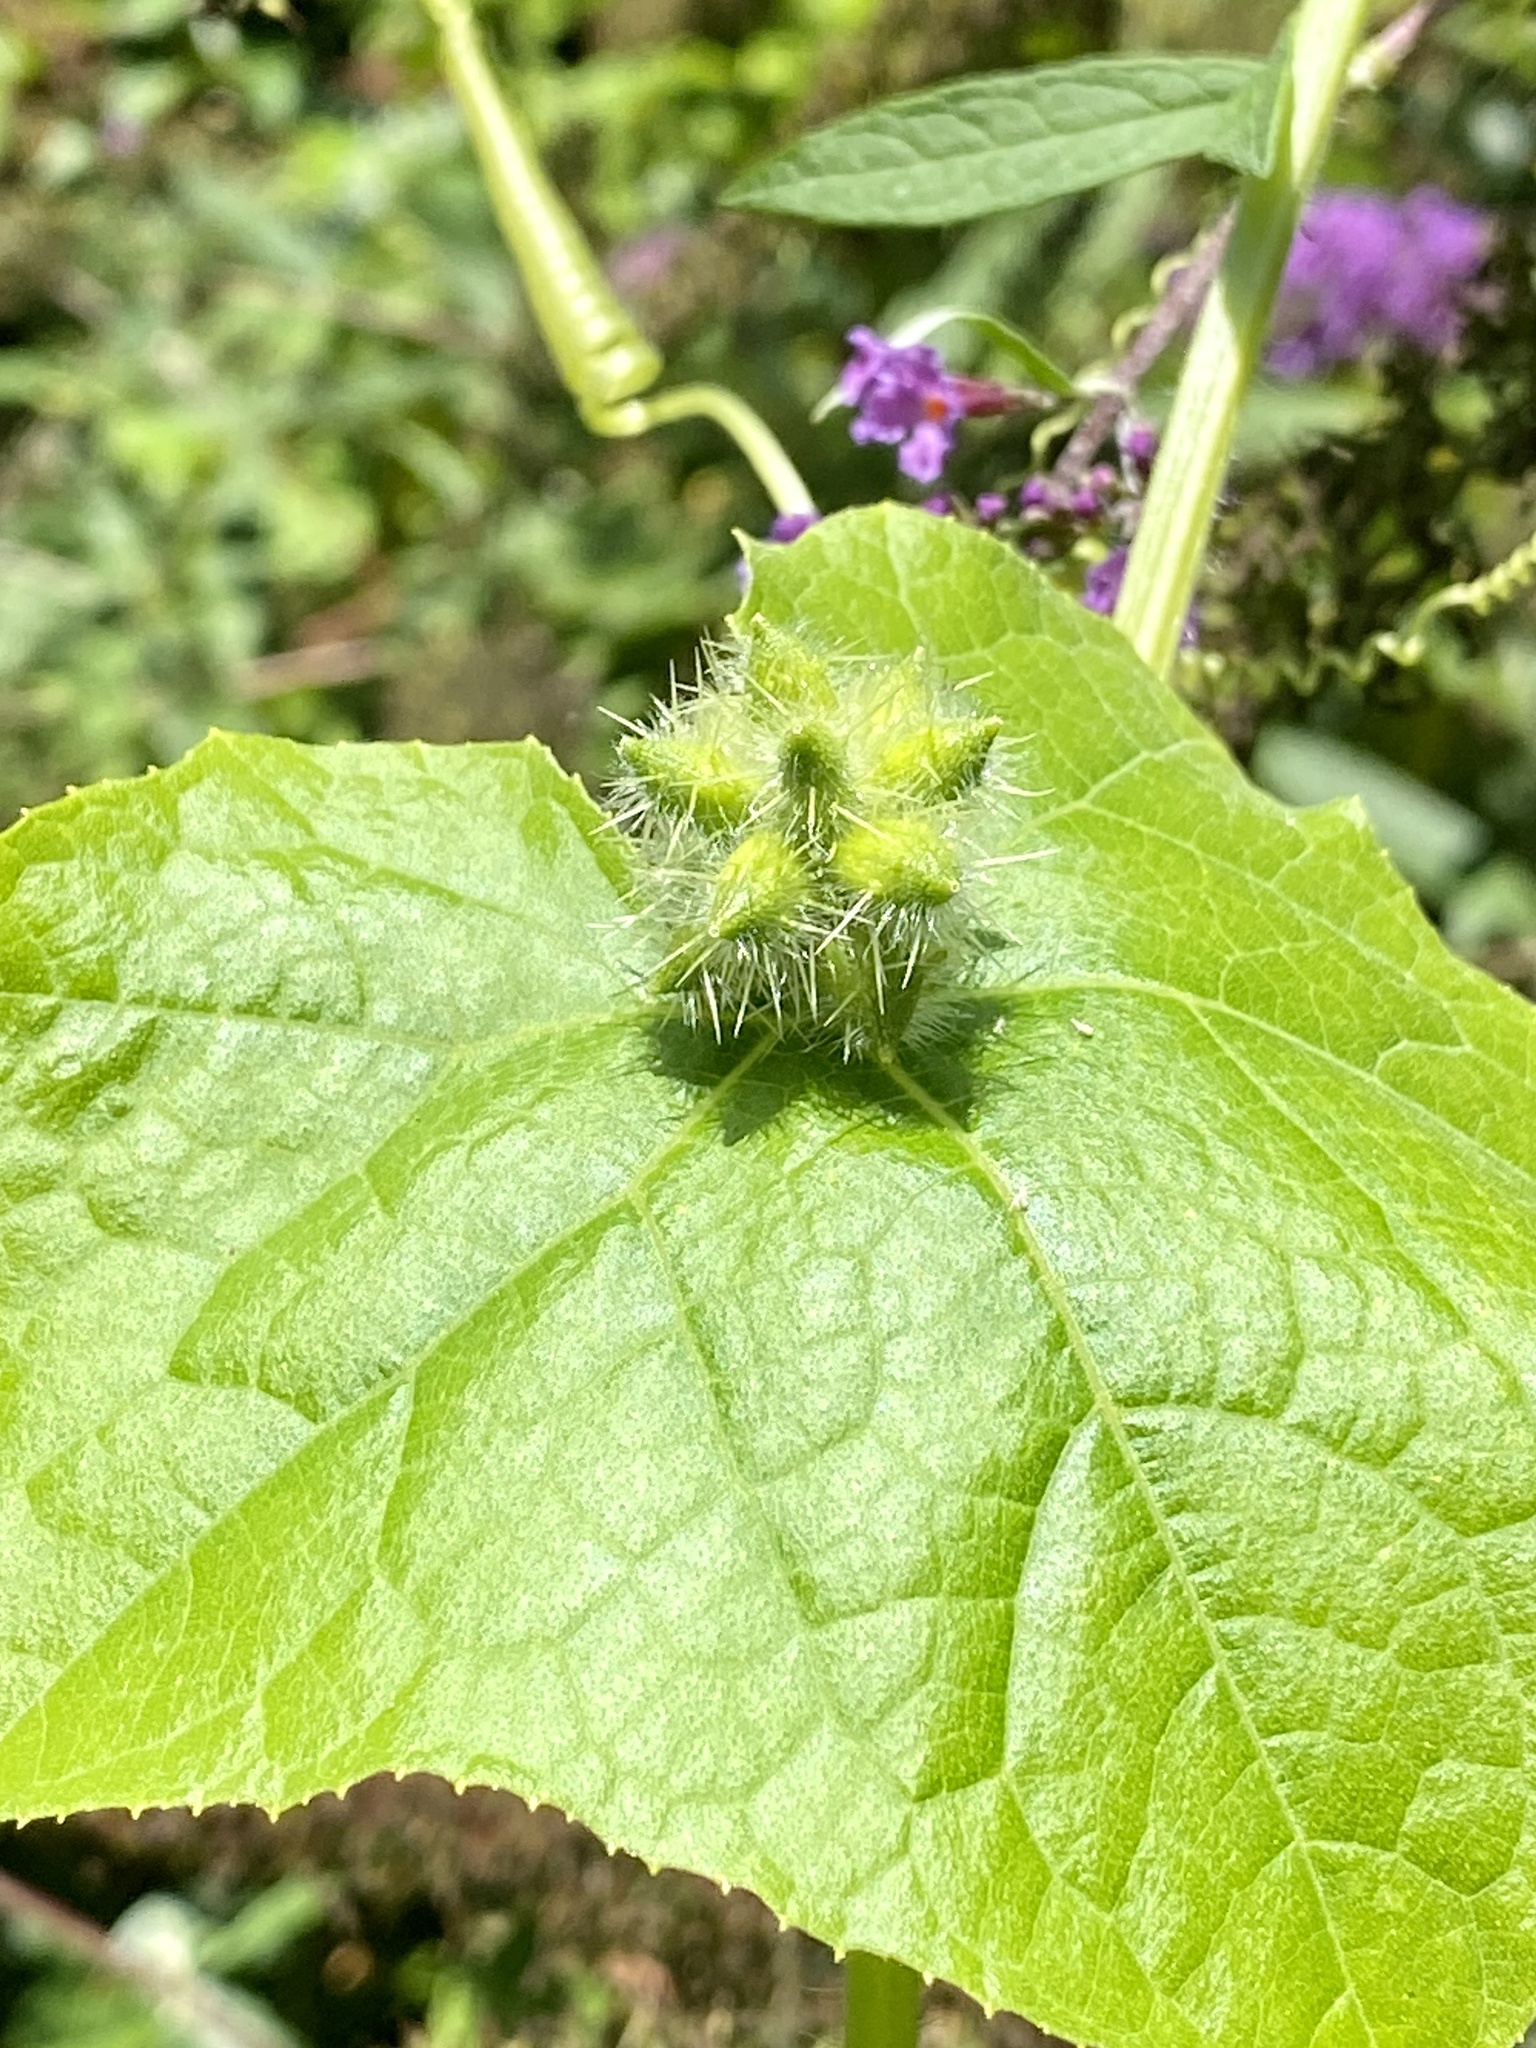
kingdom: Plantae
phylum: Tracheophyta
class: Magnoliopsida
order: Cucurbitales
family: Cucurbitaceae
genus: Sicyos
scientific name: Sicyos angulatus
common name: Angled burr cucumber
